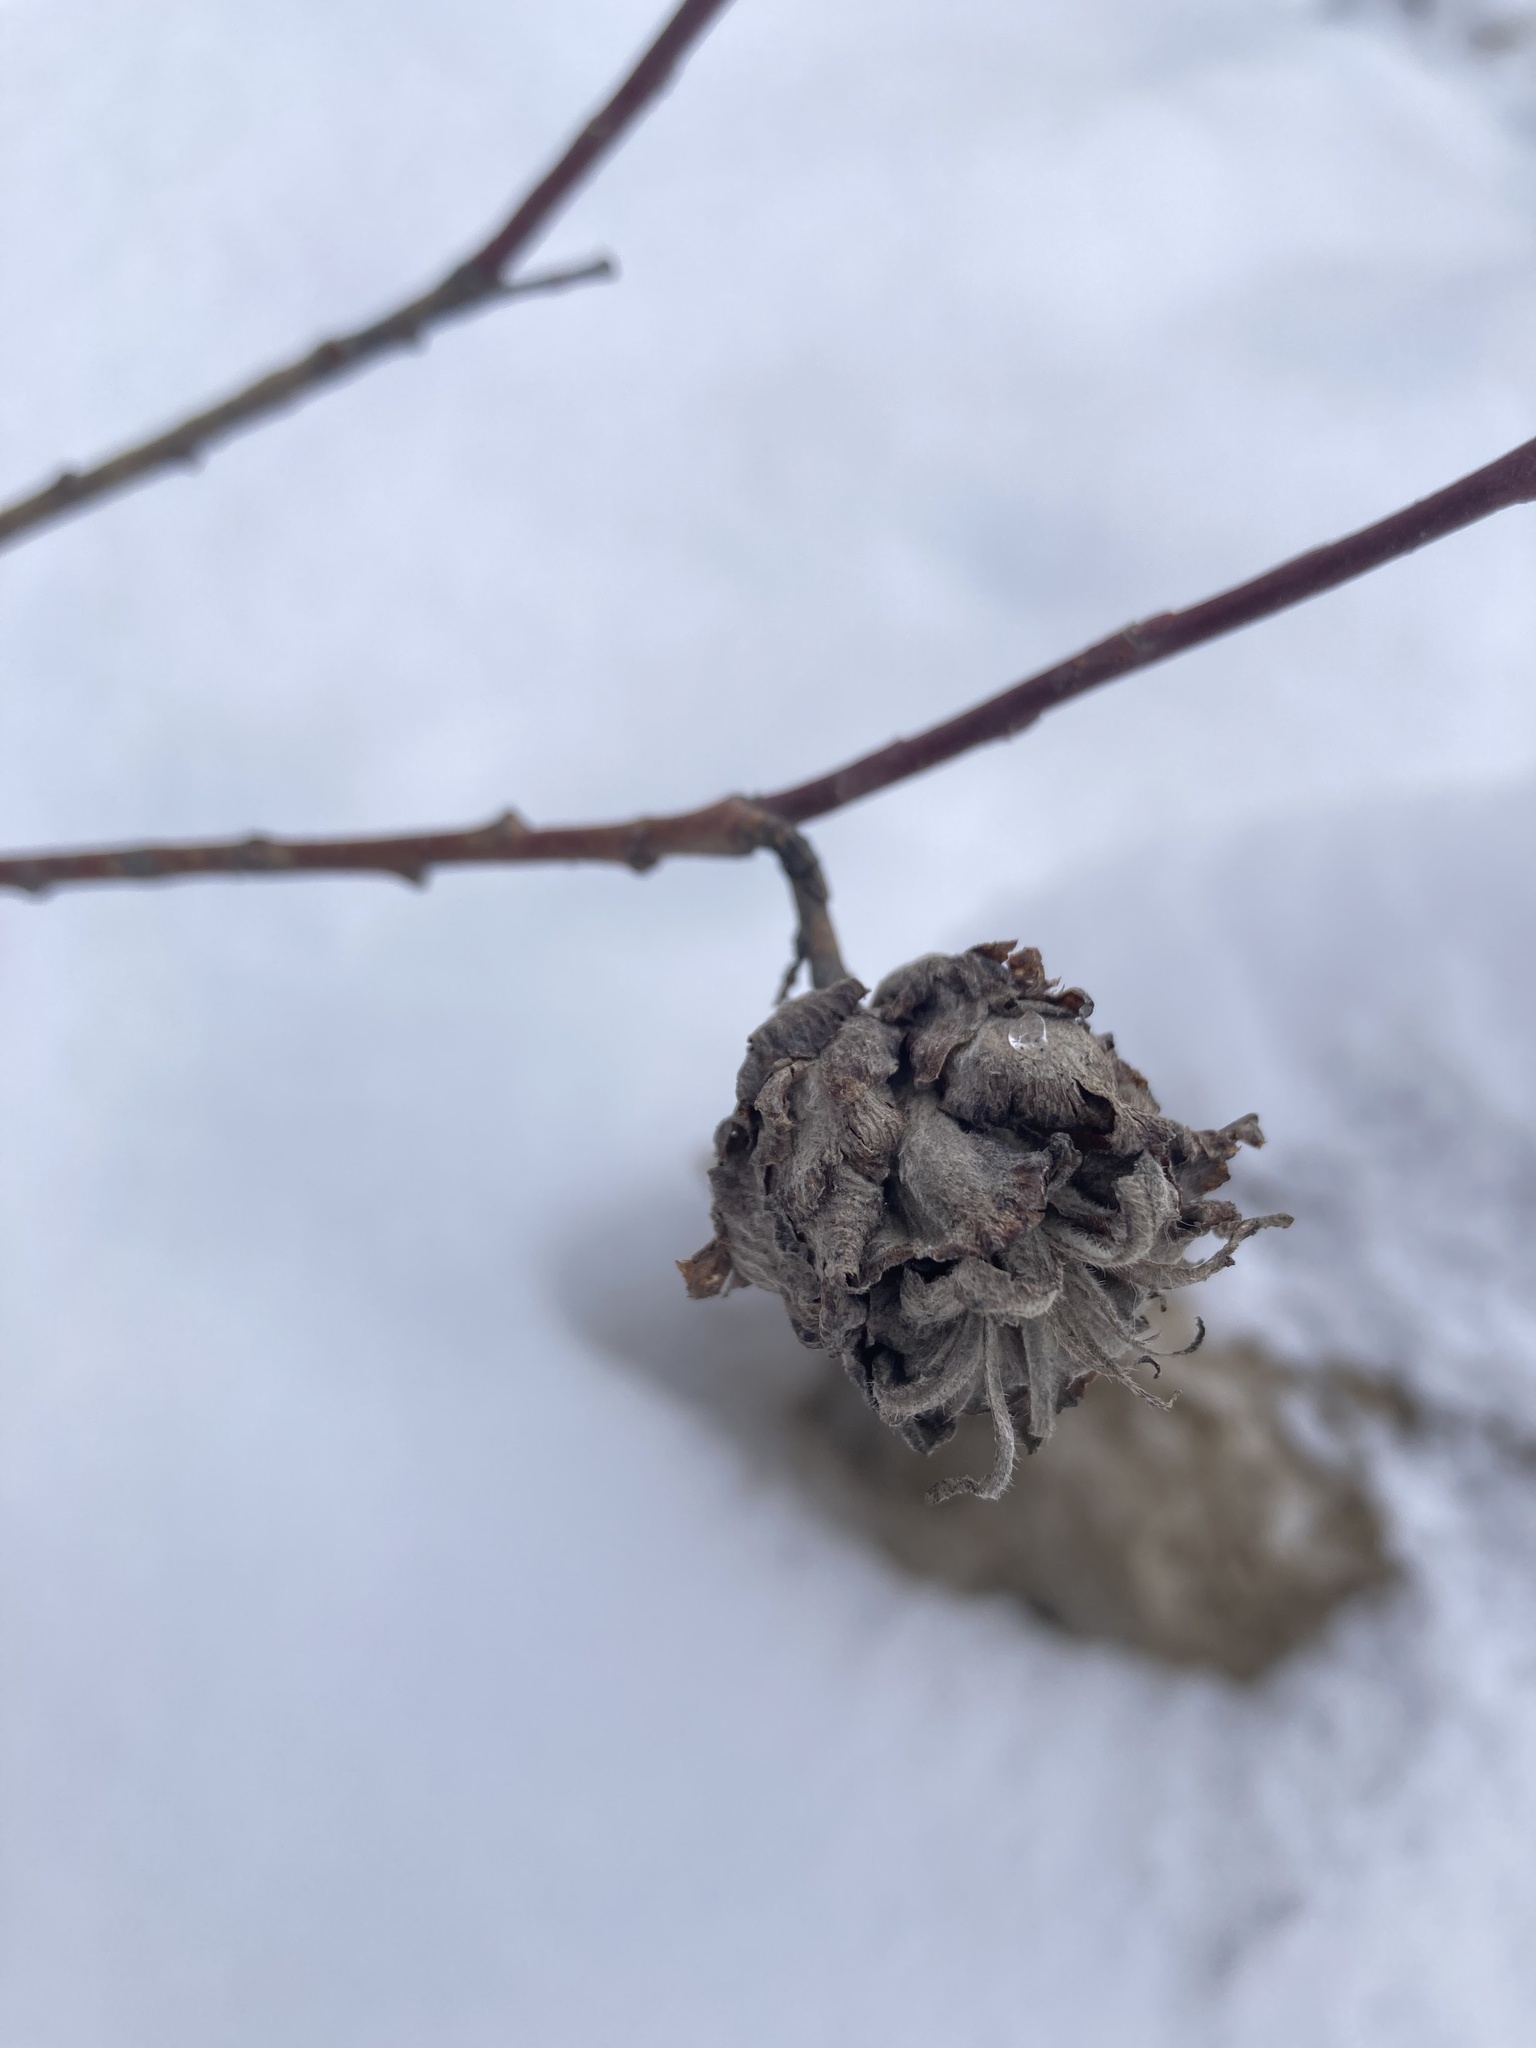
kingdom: Animalia
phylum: Arthropoda
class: Insecta
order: Diptera
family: Cecidomyiidae
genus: Rabdophaga
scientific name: Rabdophaga strobiloides
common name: Willow pinecone gall midge
